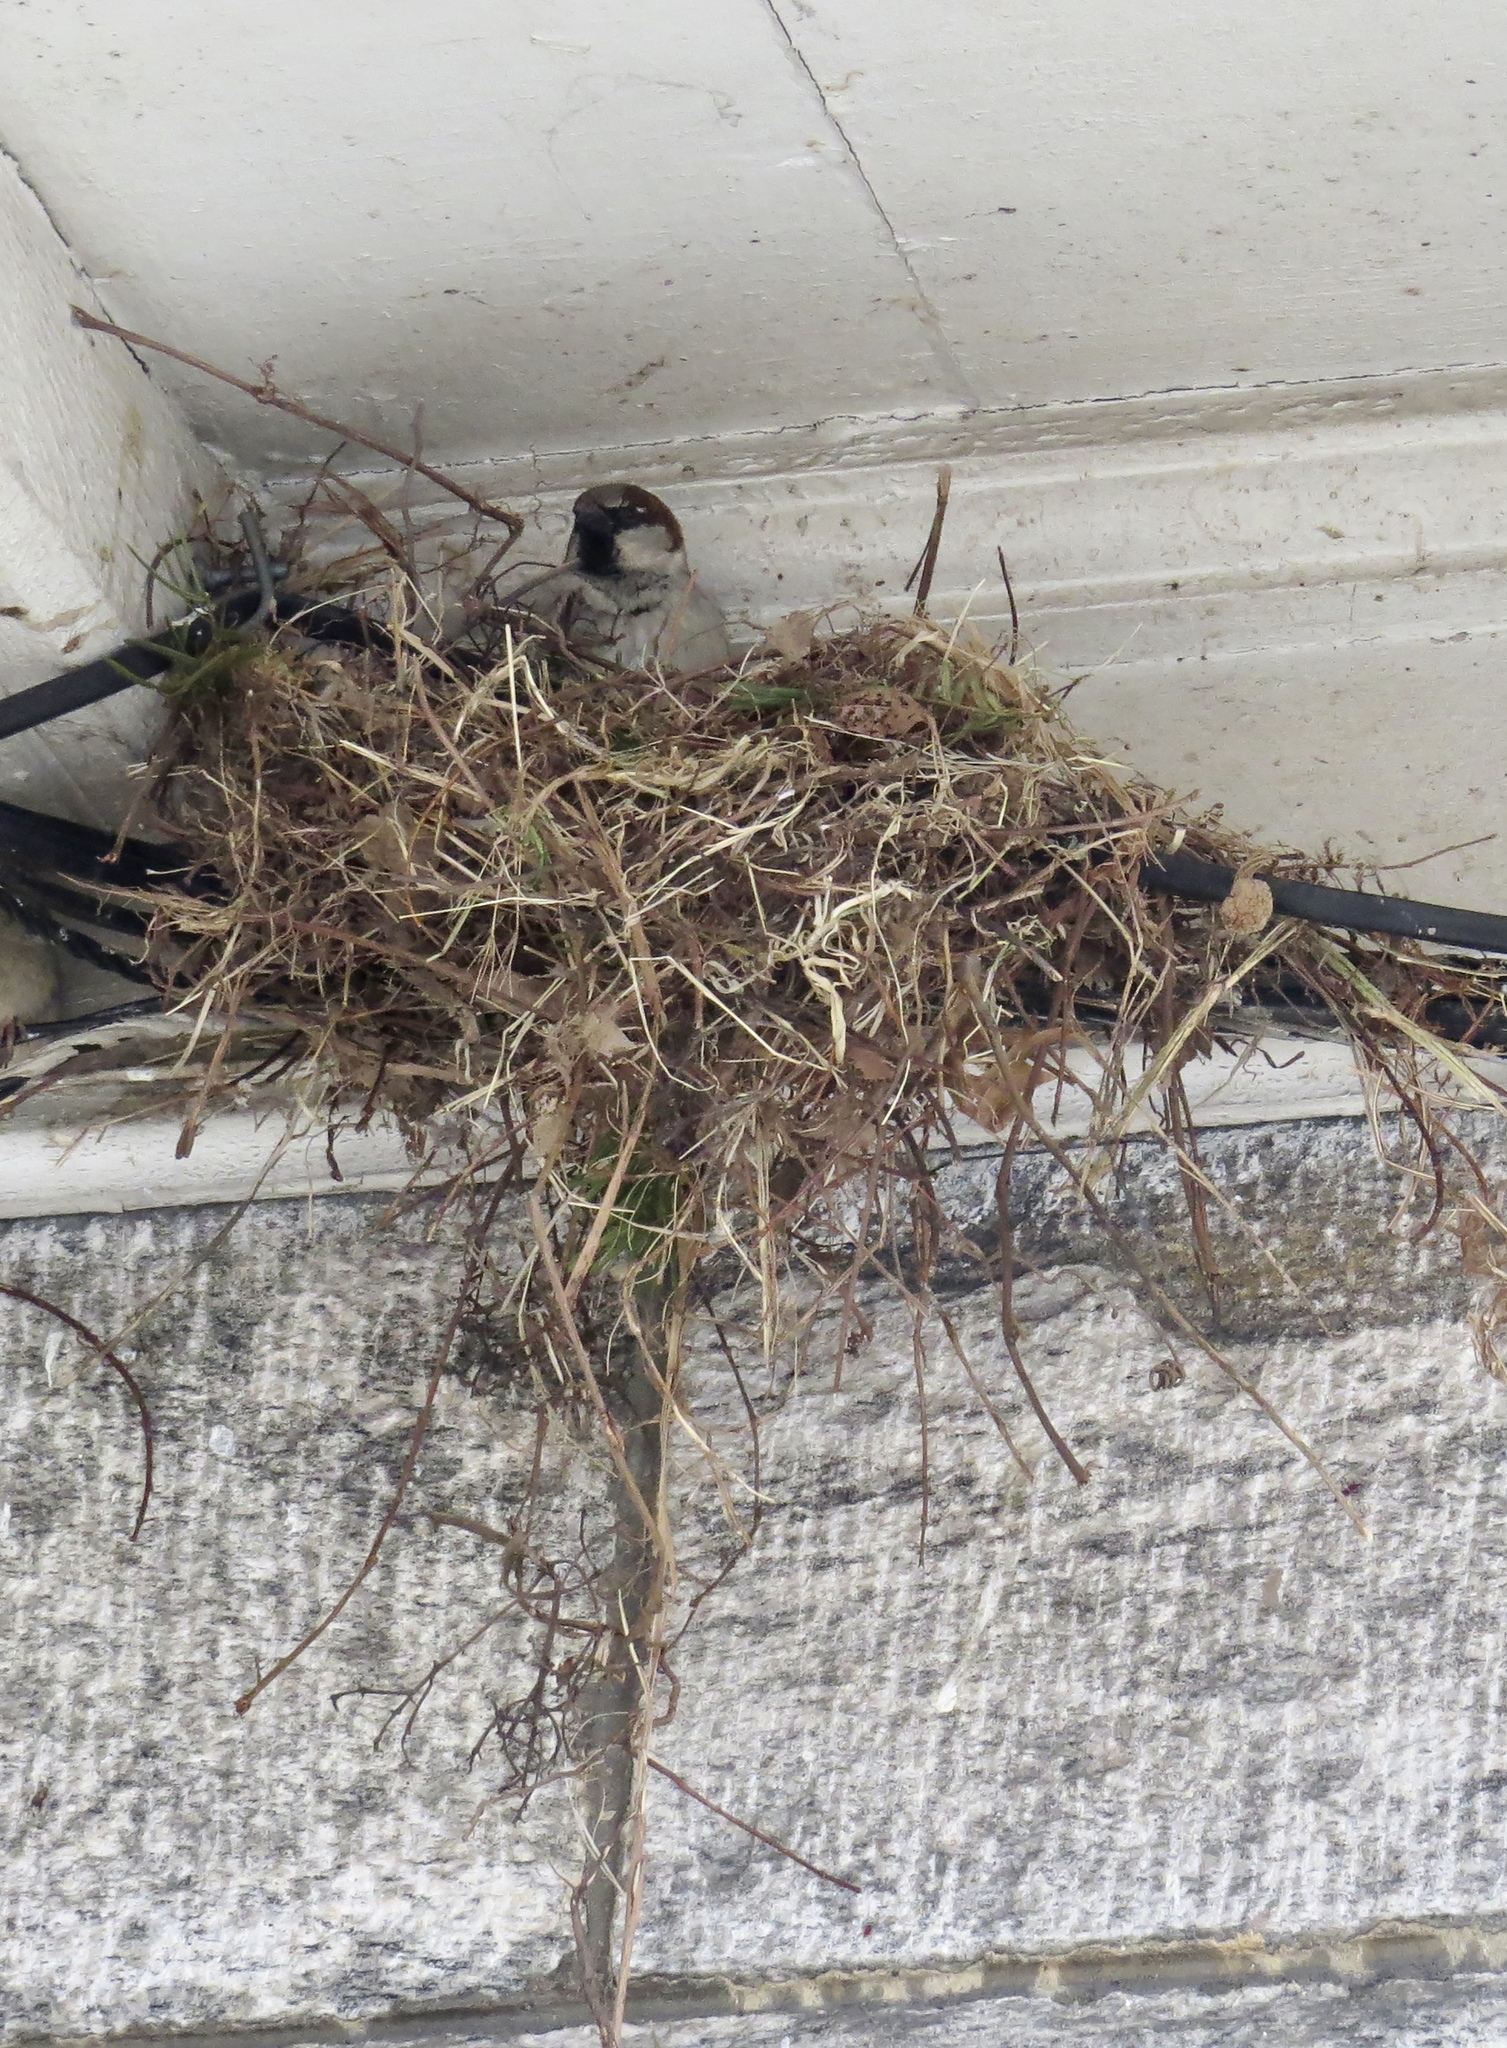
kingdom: Animalia
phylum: Chordata
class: Aves
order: Passeriformes
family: Passeridae
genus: Passer
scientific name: Passer domesticus
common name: House sparrow
